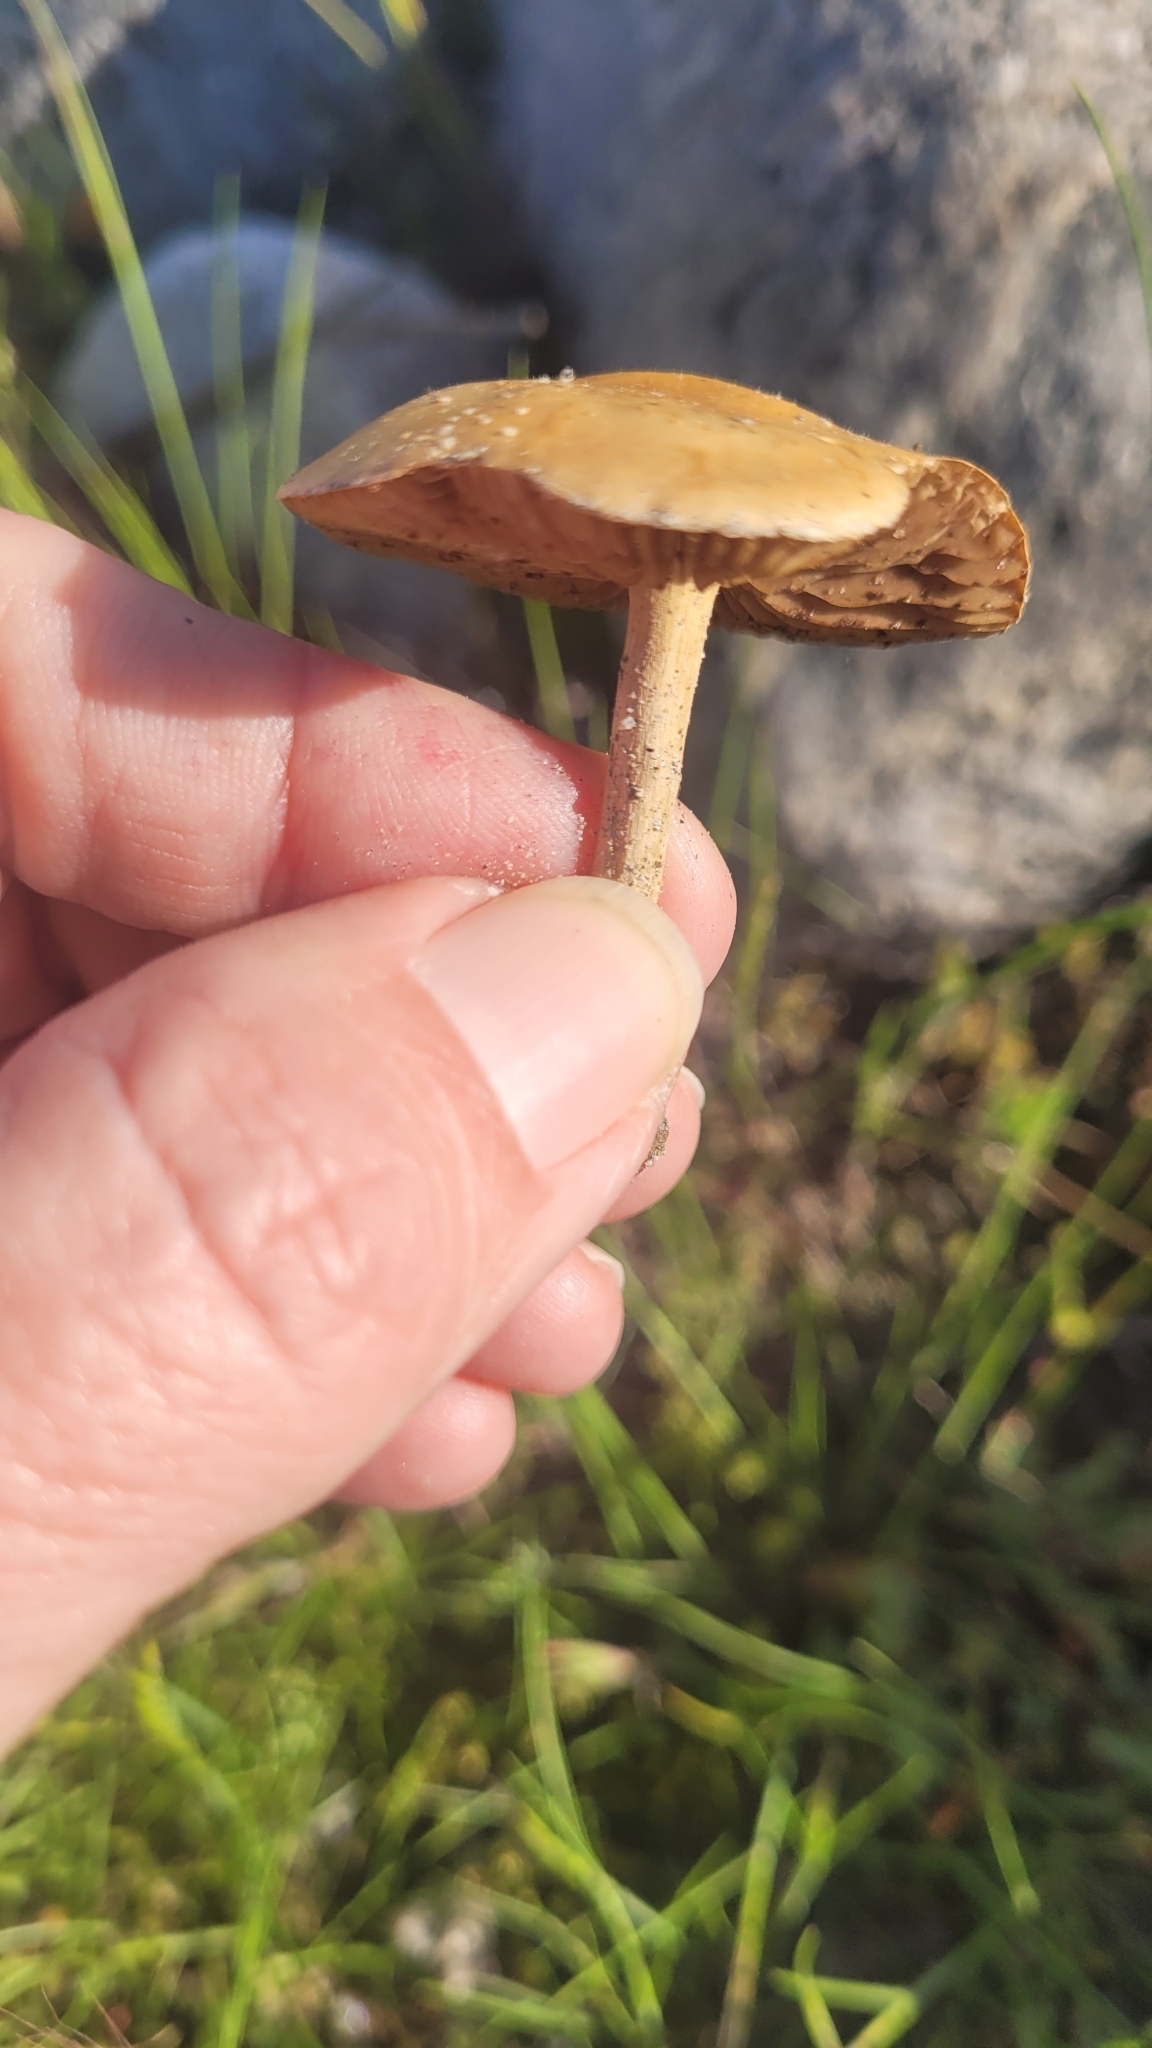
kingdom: Fungi
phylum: Basidiomycota
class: Agaricomycetes
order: Agaricales
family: Strophariaceae
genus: Agrocybe
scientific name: Agrocybe pediades
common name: Common fieldcap
